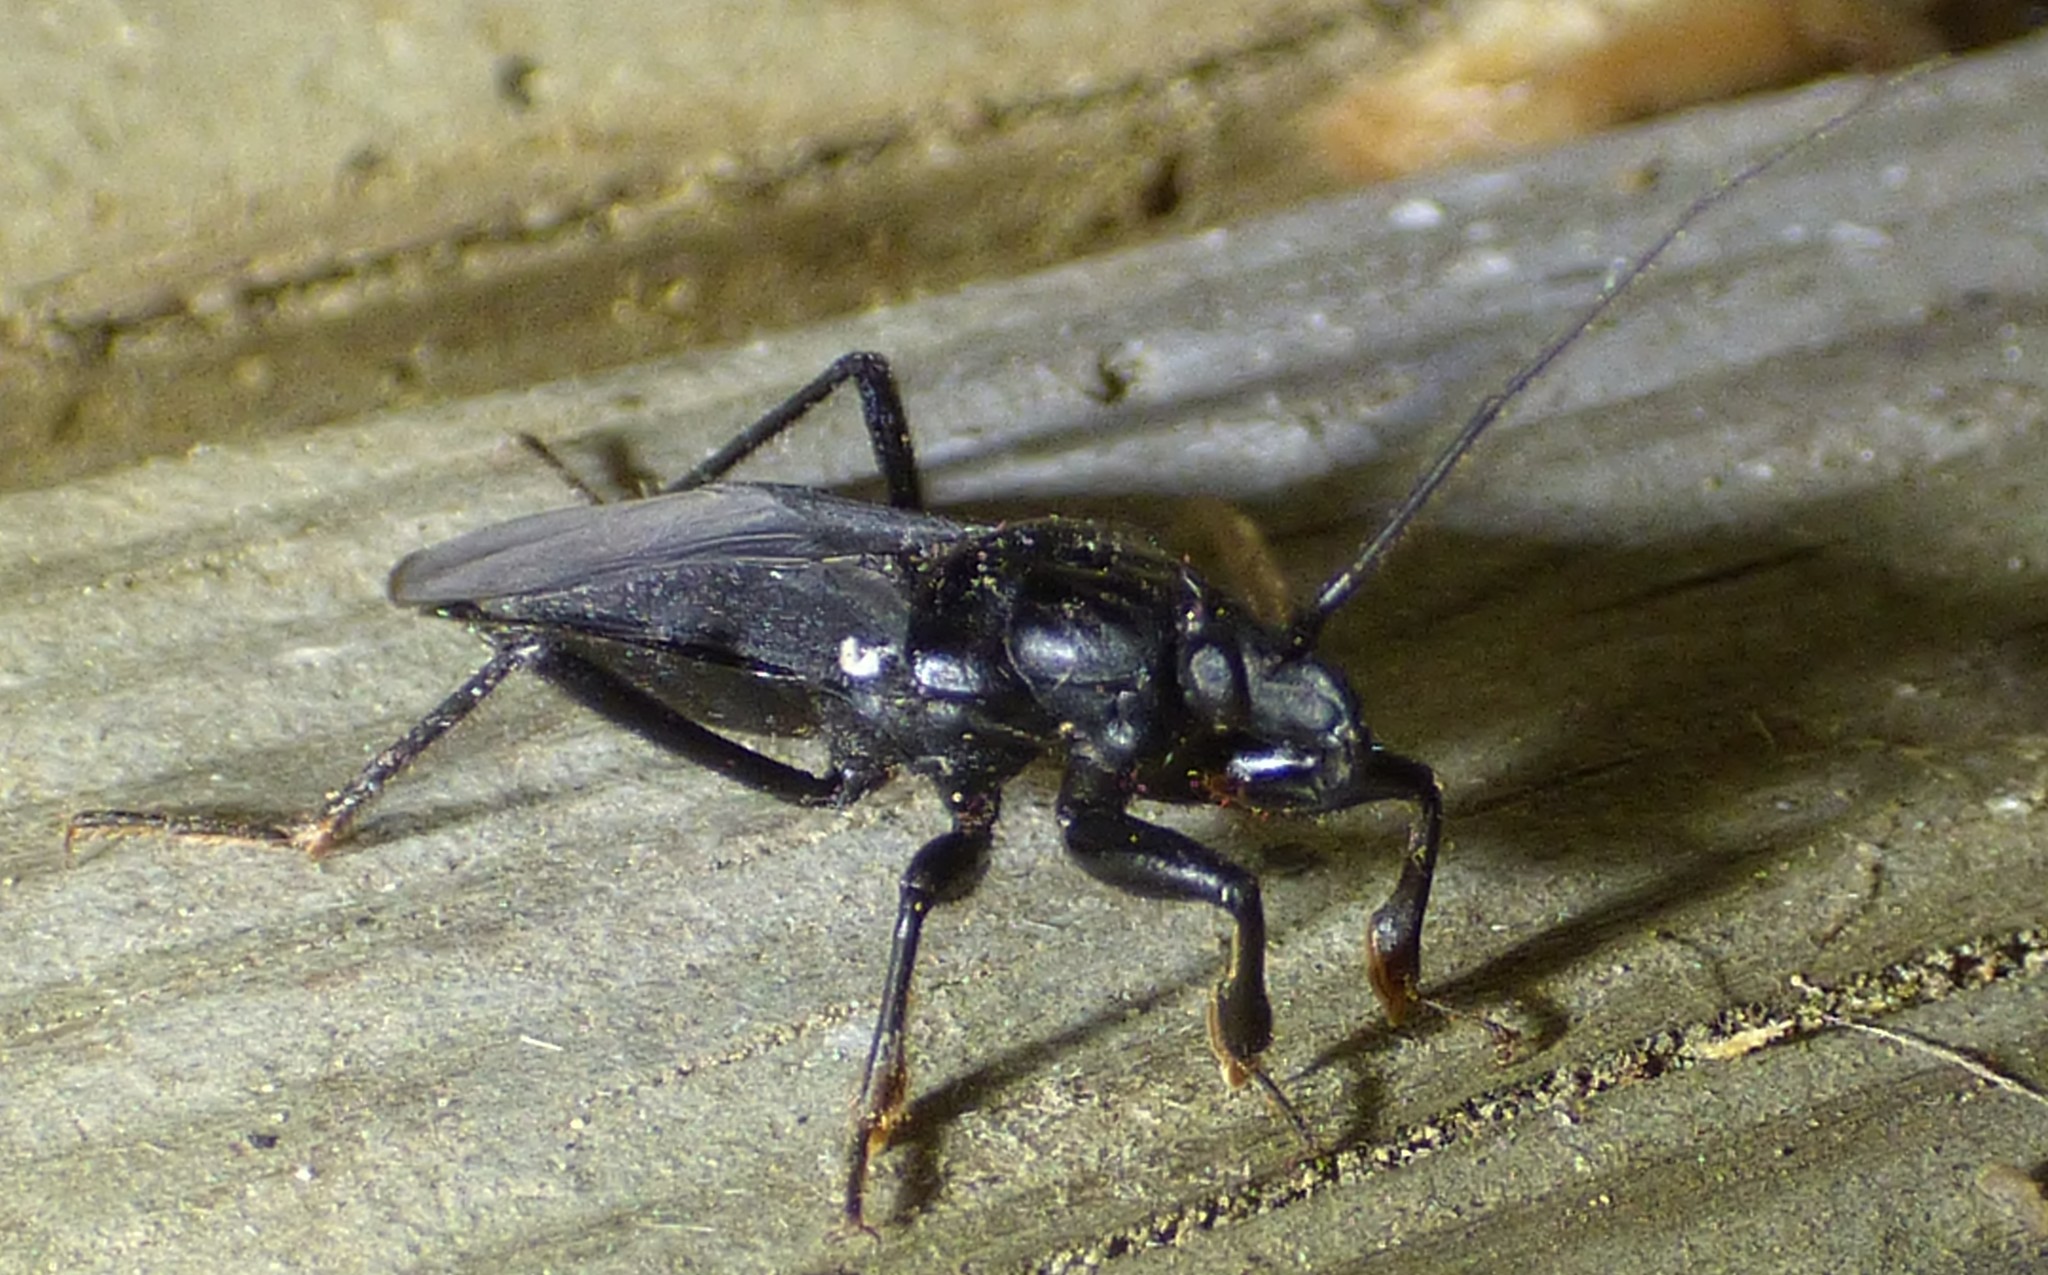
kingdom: Animalia
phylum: Arthropoda
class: Insecta
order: Hemiptera
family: Reduviidae
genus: Melanolestes
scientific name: Melanolestes picipes
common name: Assassin bug
